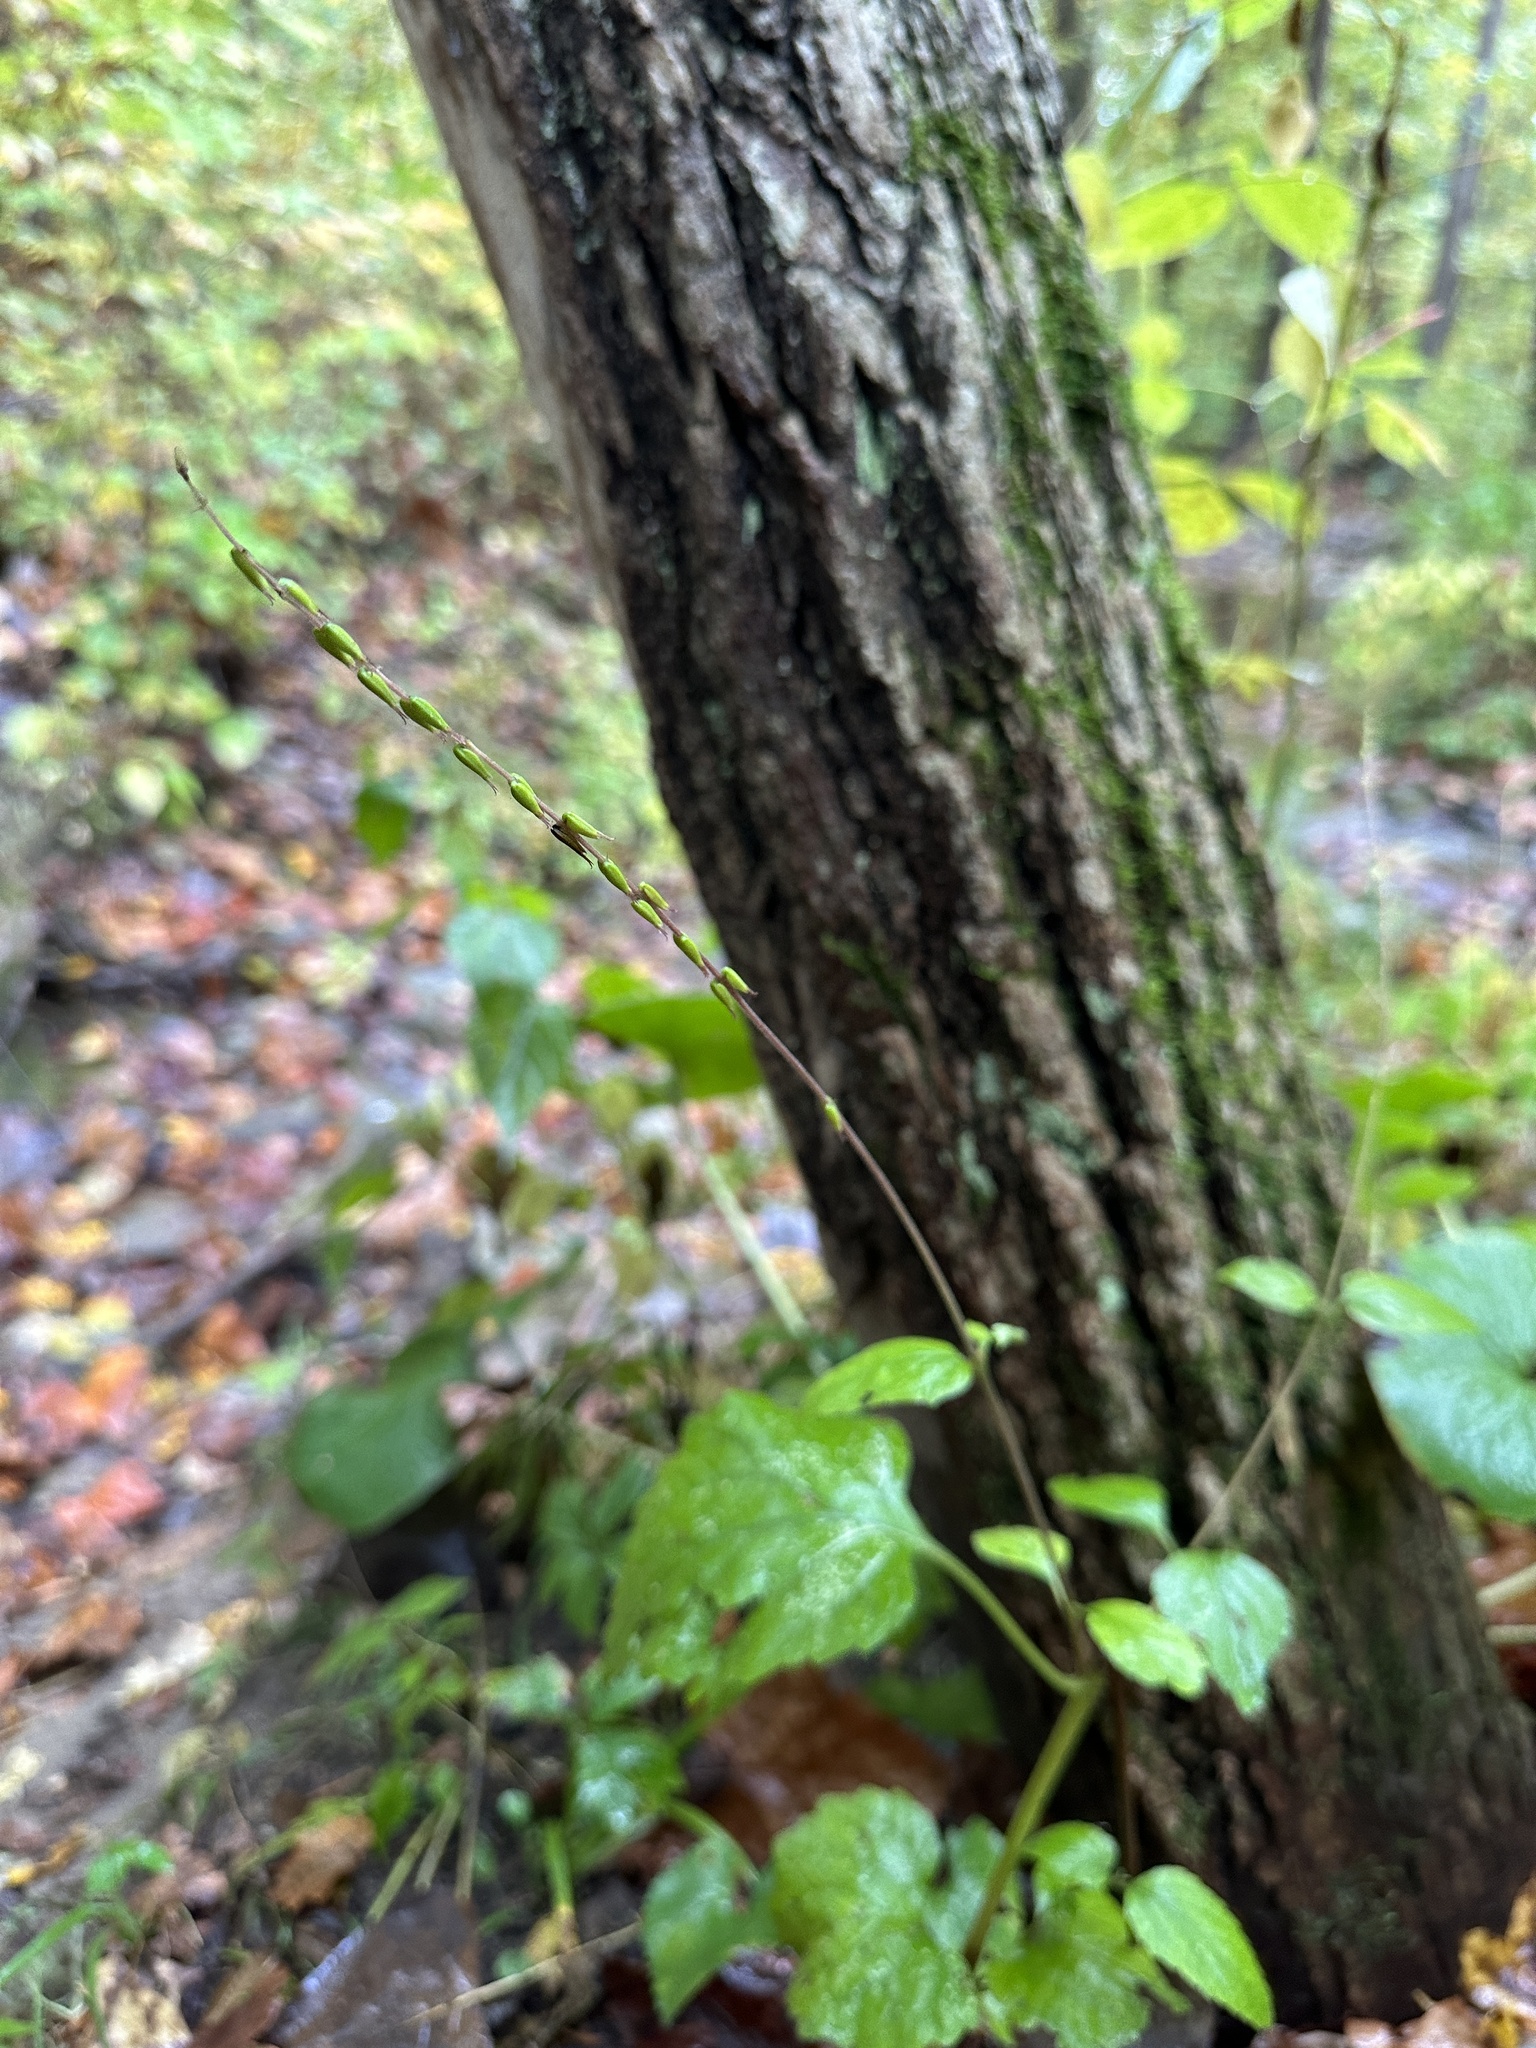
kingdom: Plantae
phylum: Tracheophyta
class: Magnoliopsida
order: Lamiales
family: Phrymaceae
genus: Phryma
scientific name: Phryma leptostachya
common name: American lopseed
